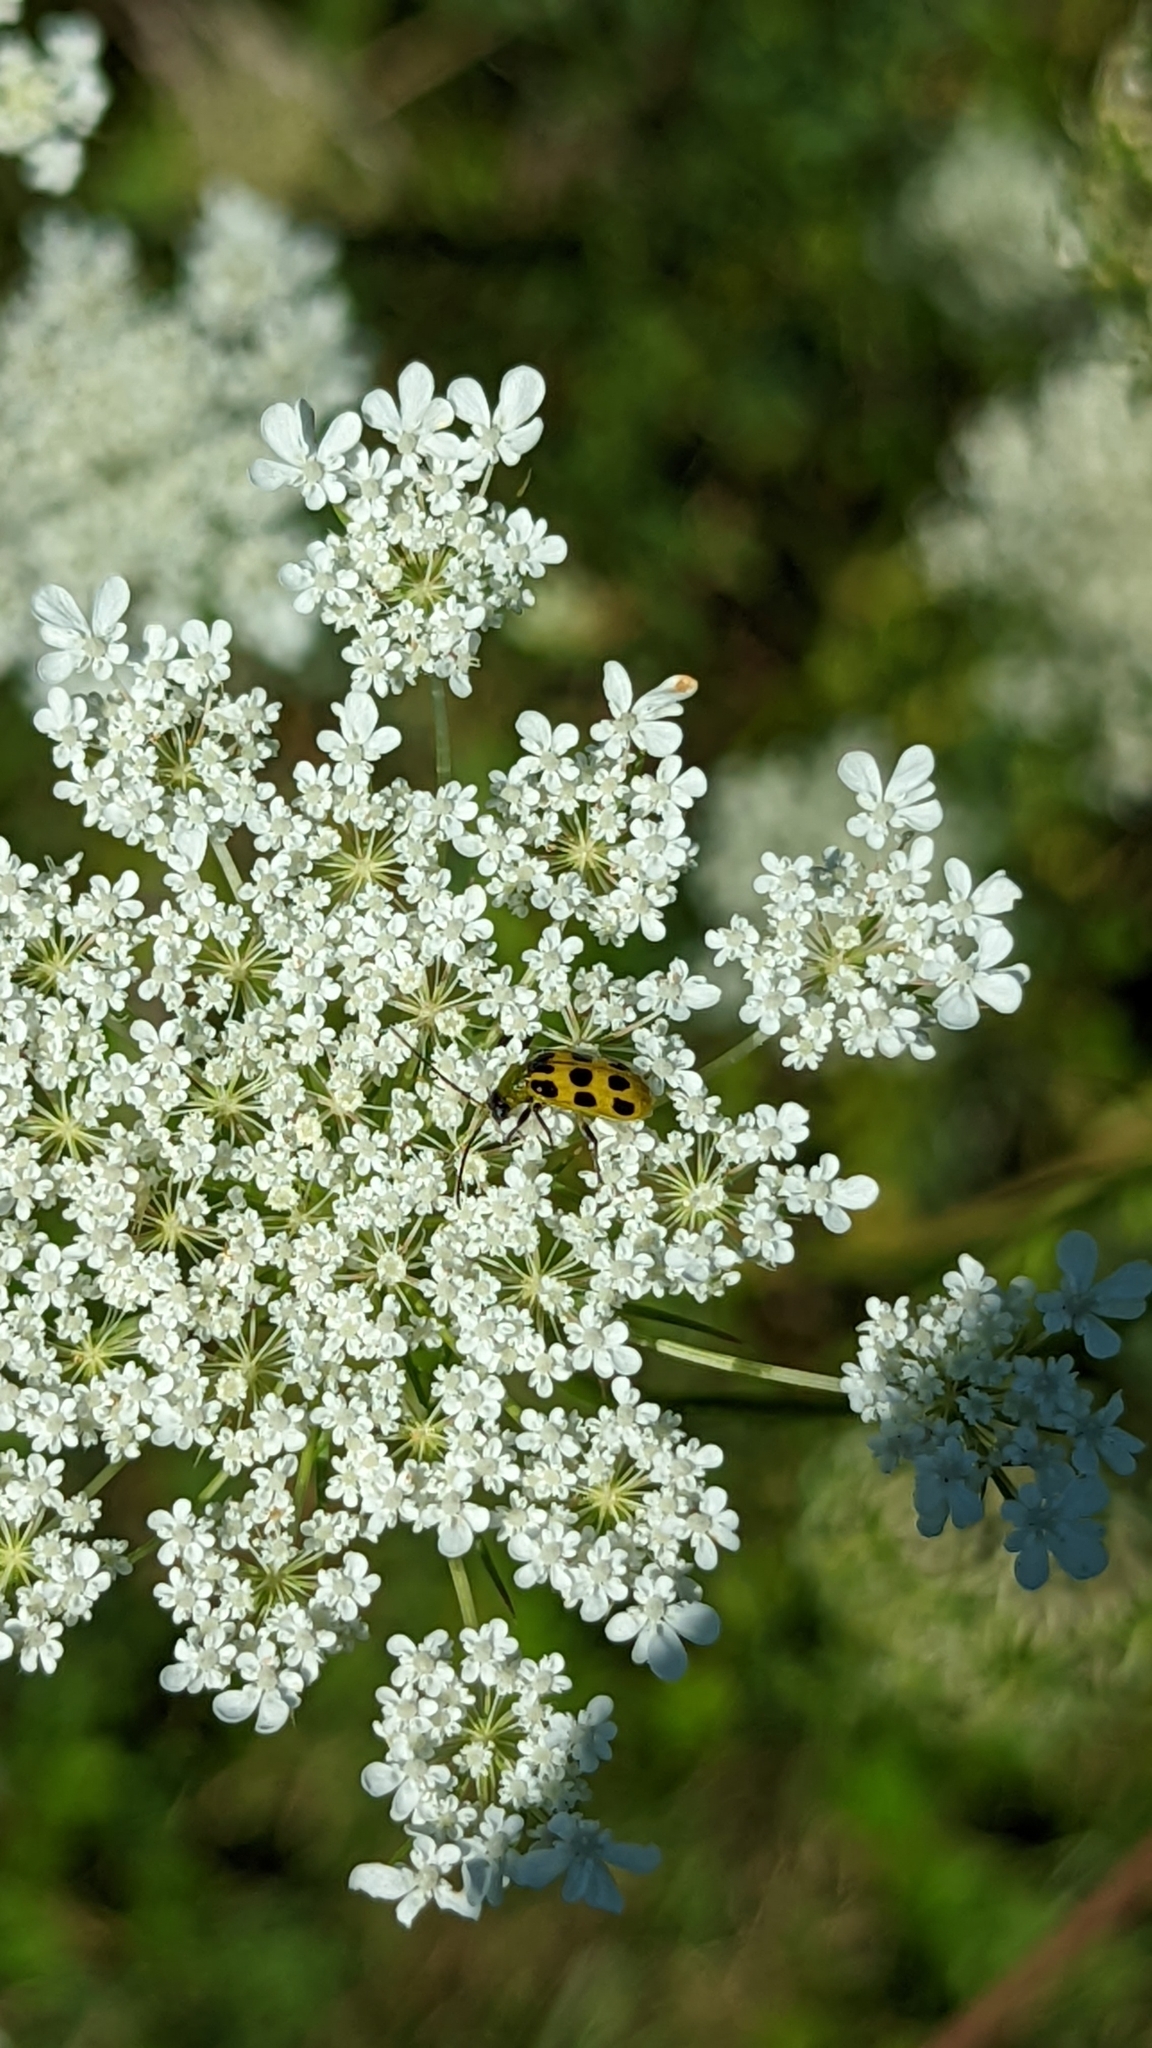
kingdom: Animalia
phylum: Arthropoda
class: Insecta
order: Coleoptera
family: Chrysomelidae
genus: Diabrotica
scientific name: Diabrotica undecimpunctata
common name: Spotted cucumber beetle
